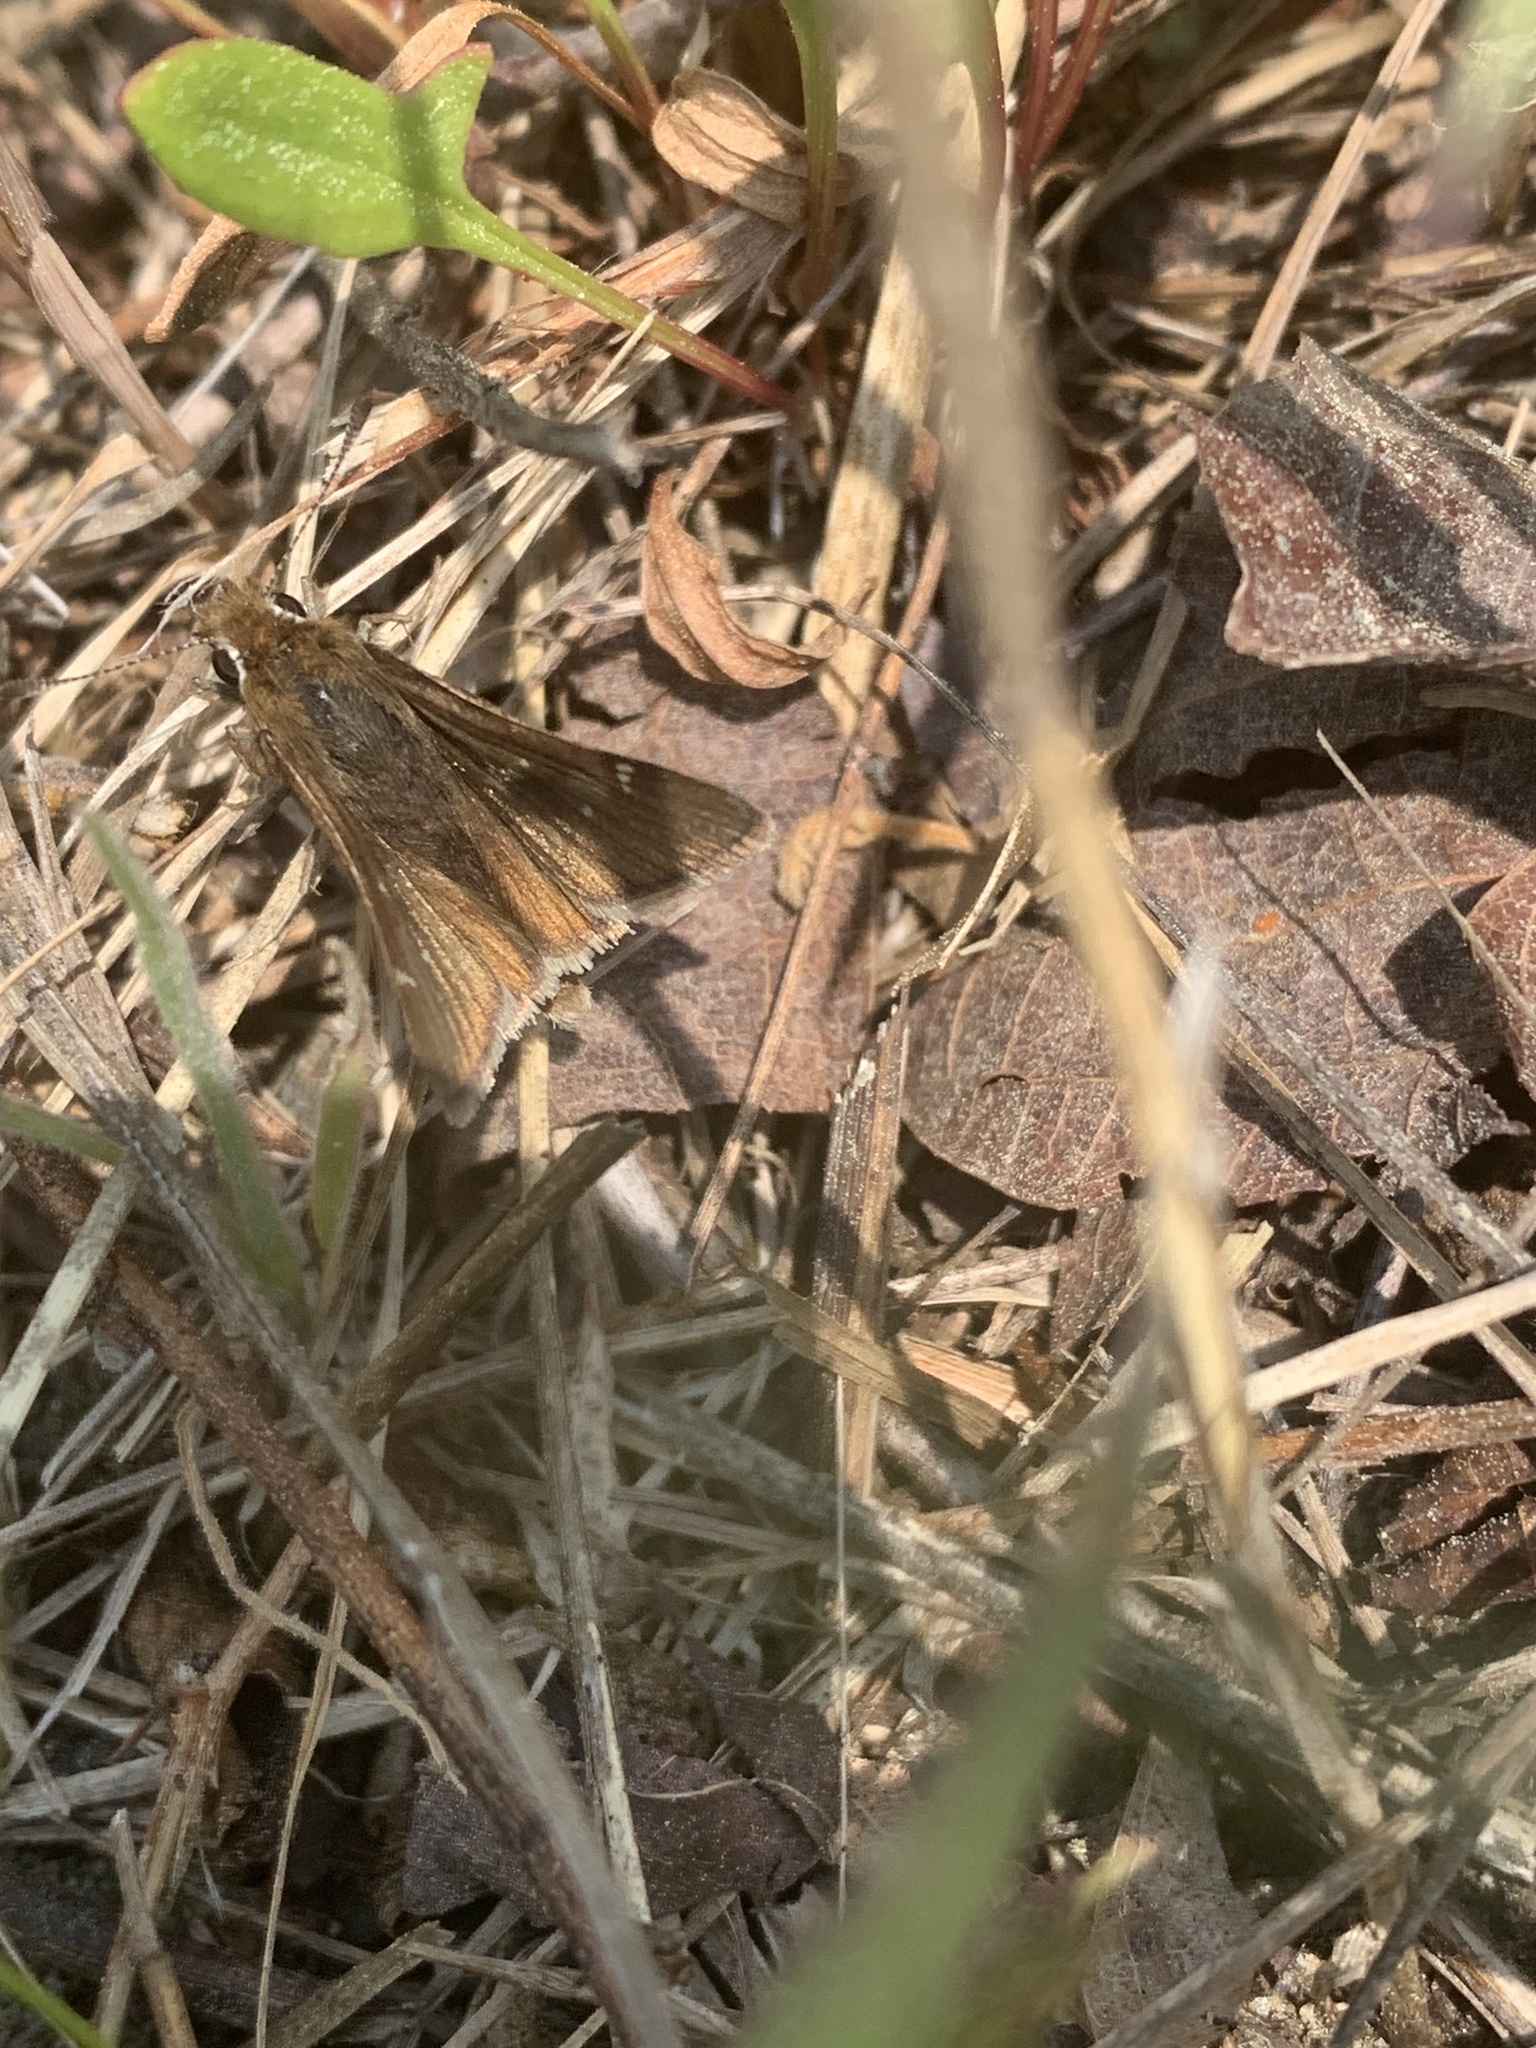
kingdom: Animalia
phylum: Arthropoda
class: Insecta
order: Lepidoptera
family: Hesperiidae
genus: Atrytonopsis
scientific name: Atrytonopsis hianna
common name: Dusted skipper
